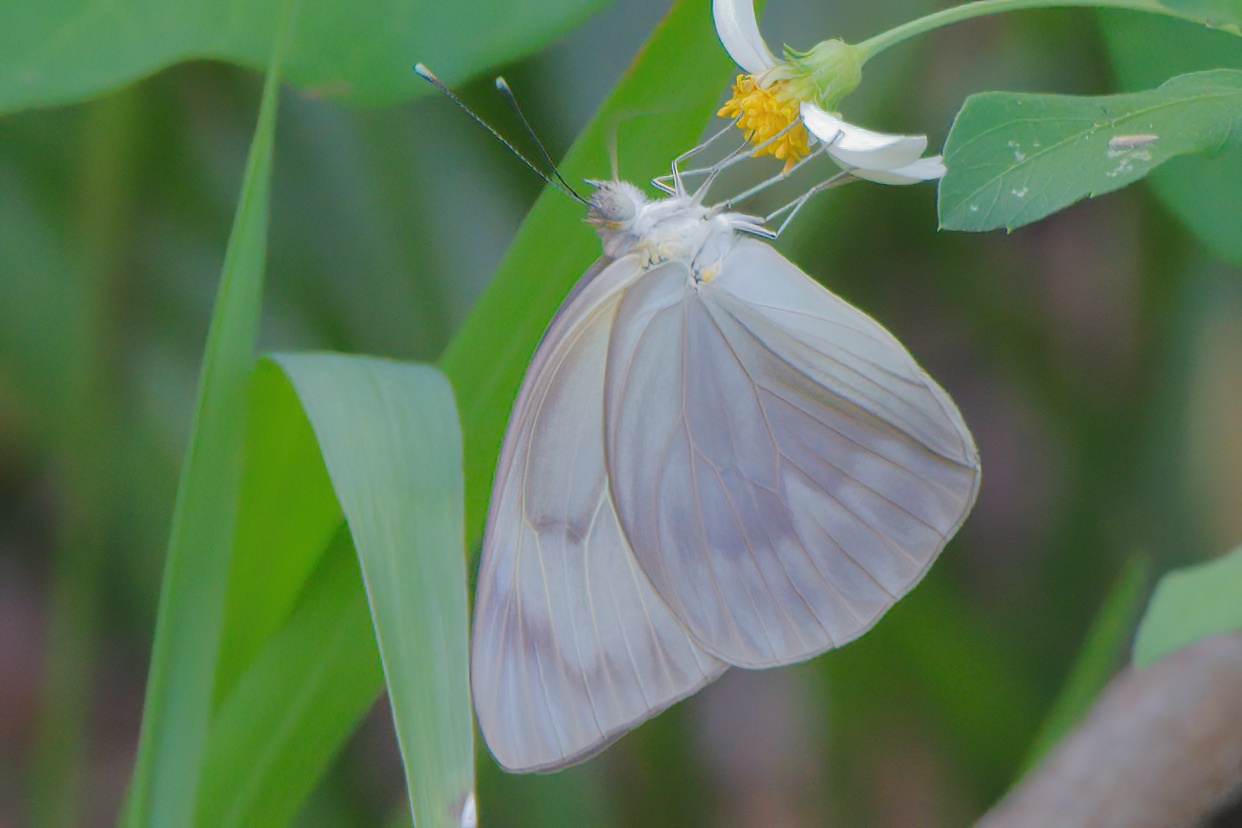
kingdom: Animalia
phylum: Arthropoda
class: Insecta
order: Lepidoptera
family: Pieridae
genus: Ascia
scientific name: Ascia monuste
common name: Great southern white
